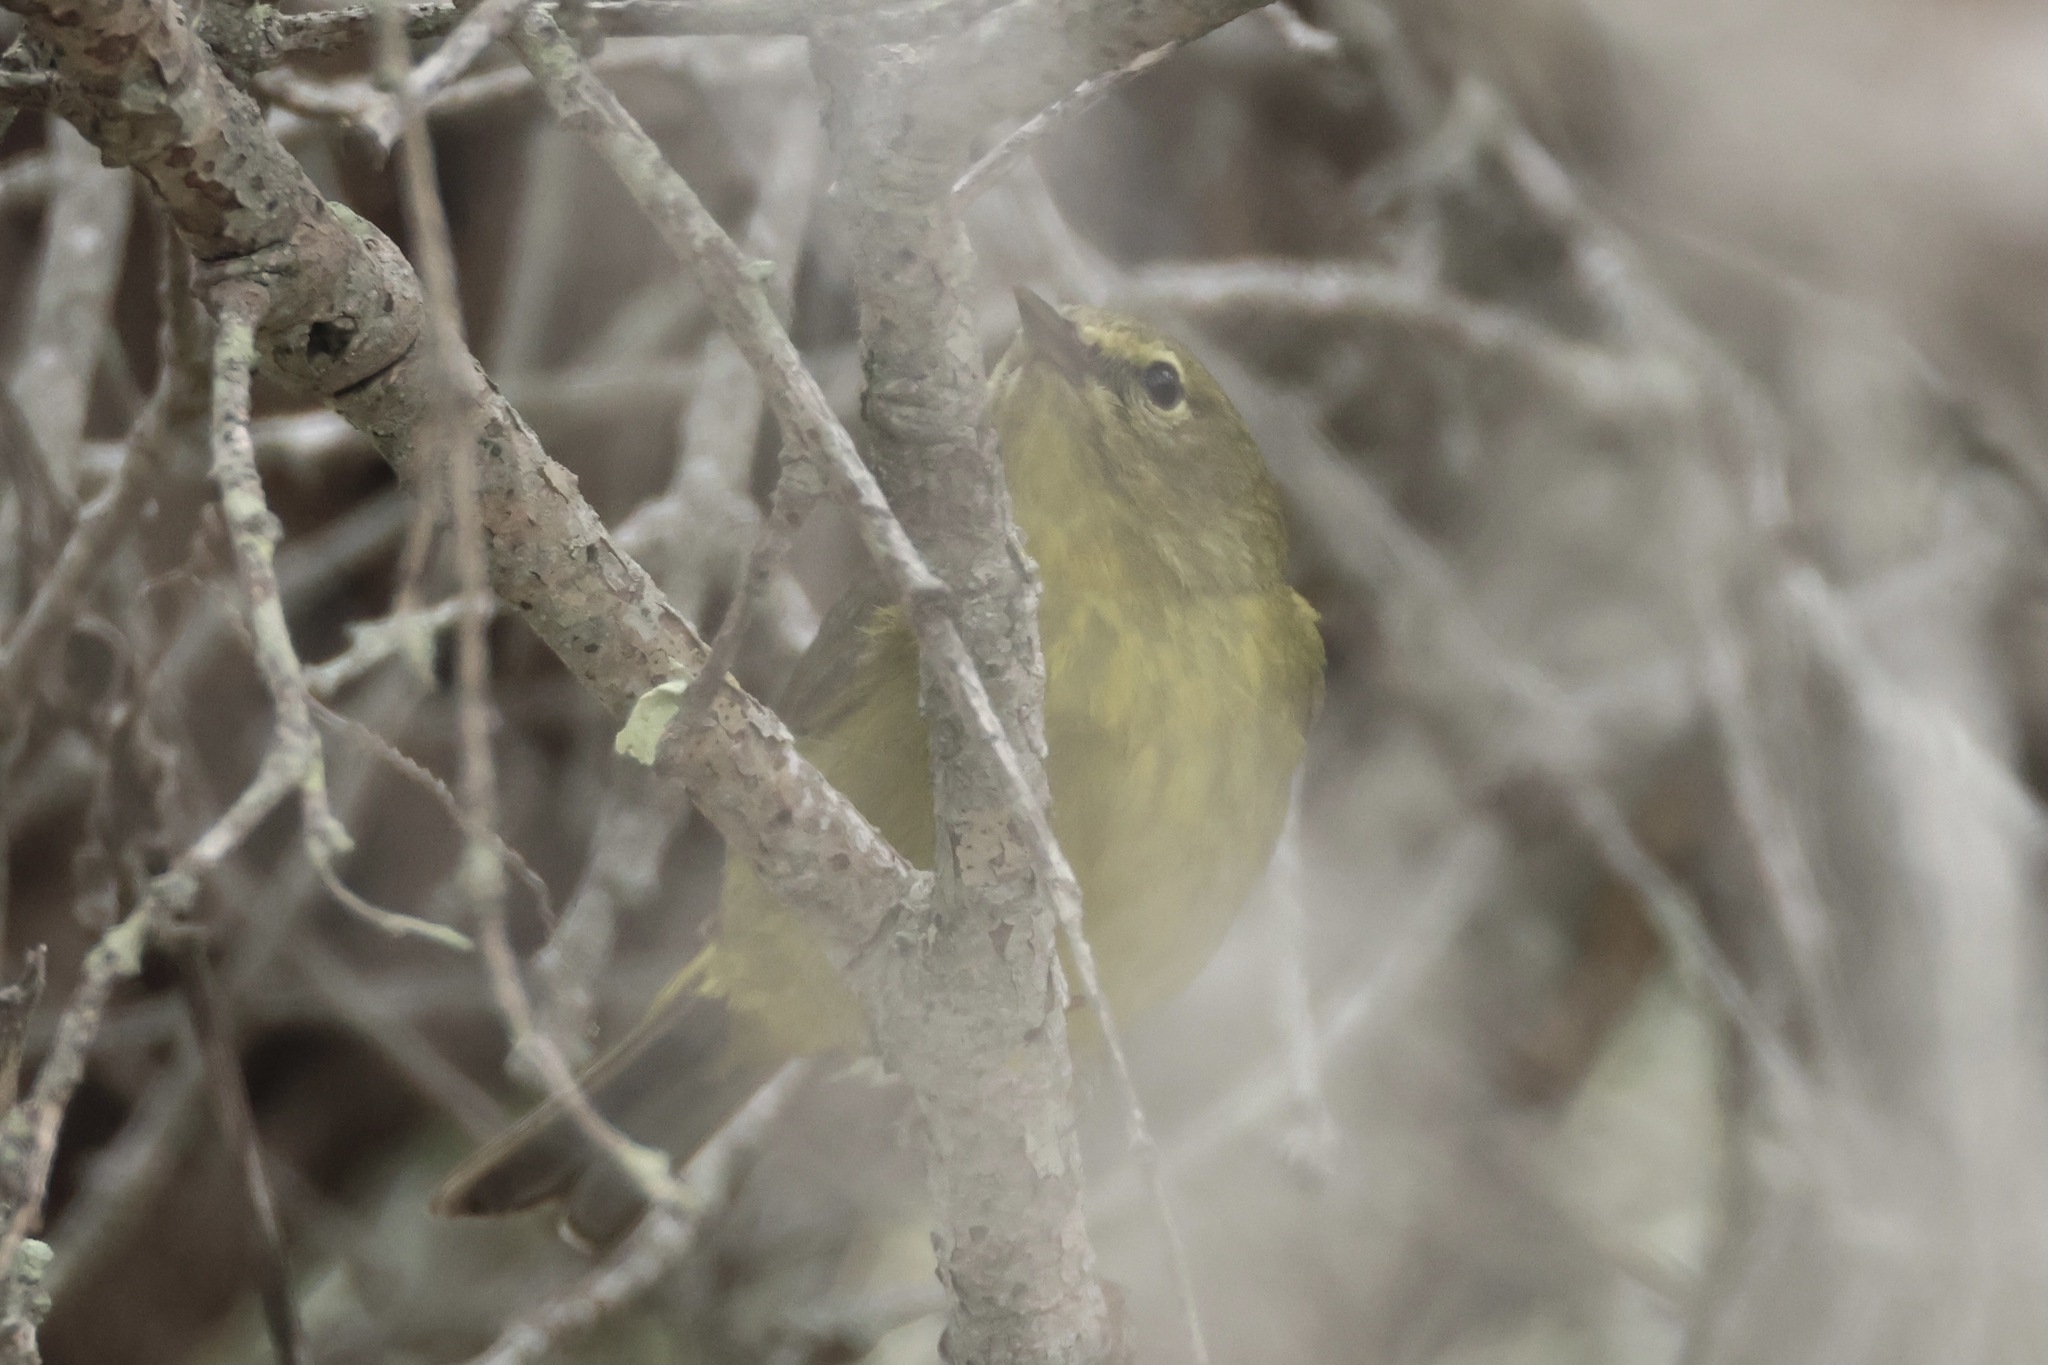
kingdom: Animalia
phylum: Chordata
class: Aves
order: Passeriformes
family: Parulidae
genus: Leiothlypis
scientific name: Leiothlypis celata
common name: Orange-crowned warbler
